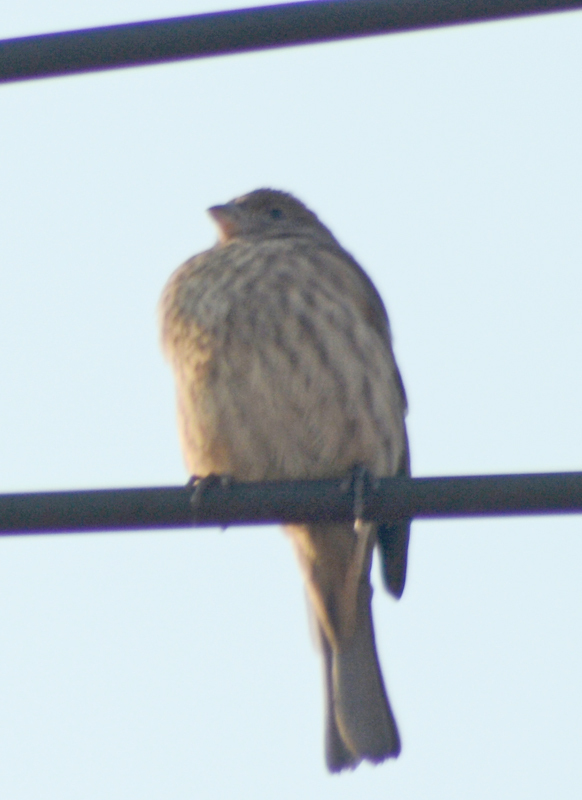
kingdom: Animalia
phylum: Chordata
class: Aves
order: Passeriformes
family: Fringillidae
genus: Haemorhous
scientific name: Haemorhous mexicanus
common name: House finch
